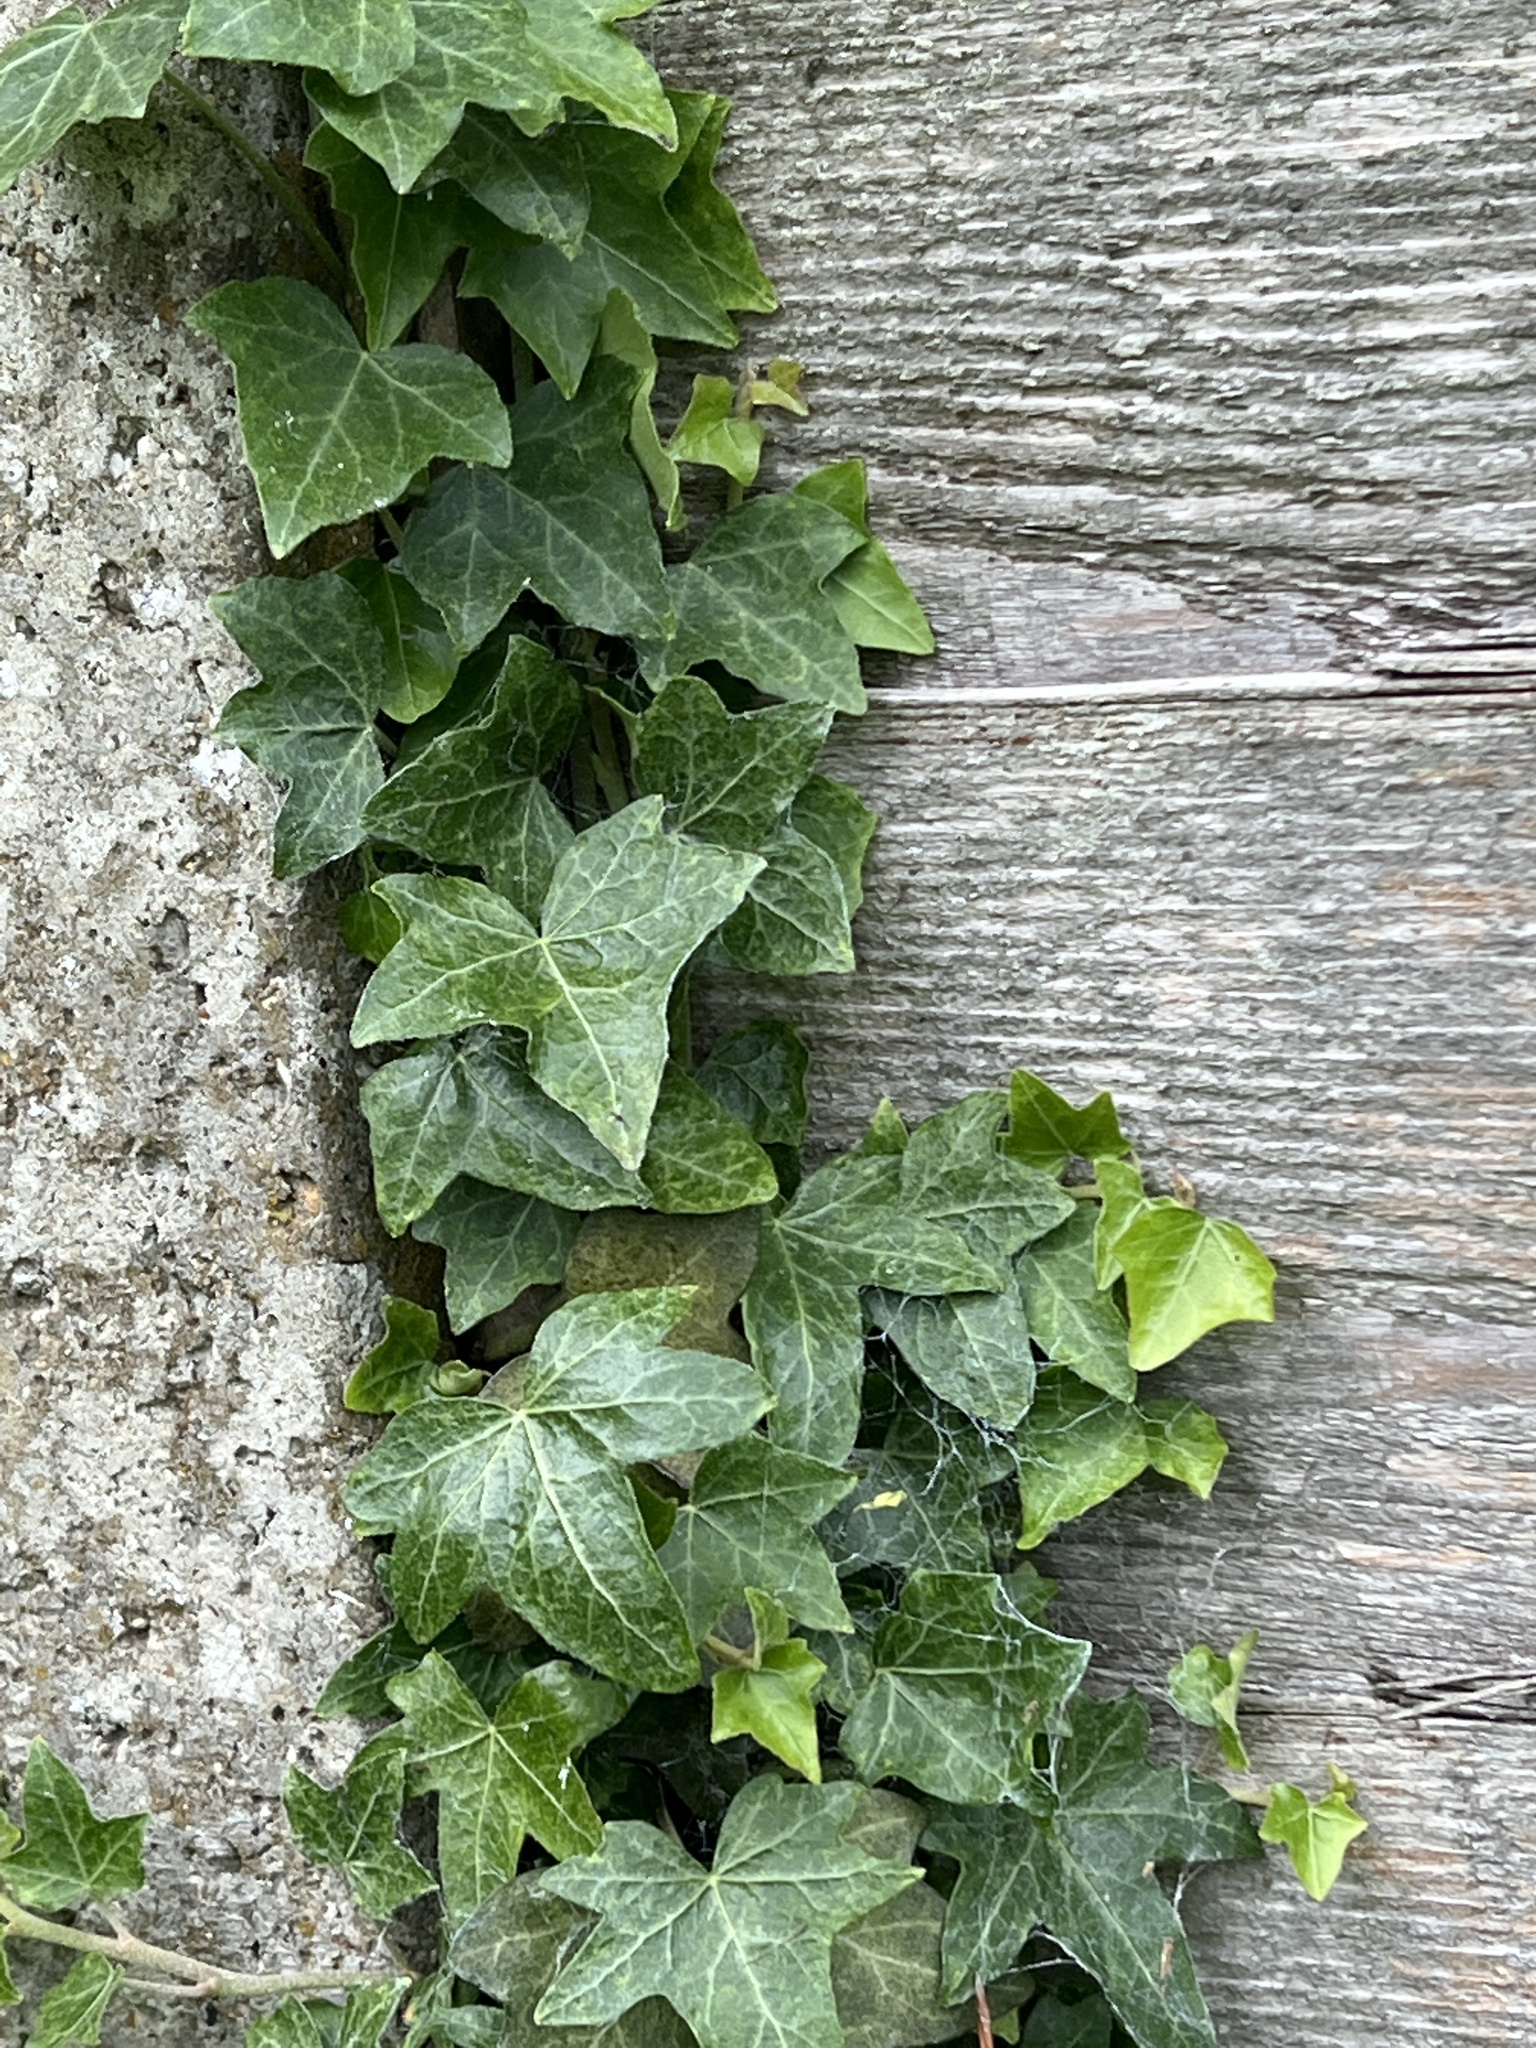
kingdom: Plantae
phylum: Tracheophyta
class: Magnoliopsida
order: Apiales
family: Araliaceae
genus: Hedera
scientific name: Hedera helix
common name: Ivy
